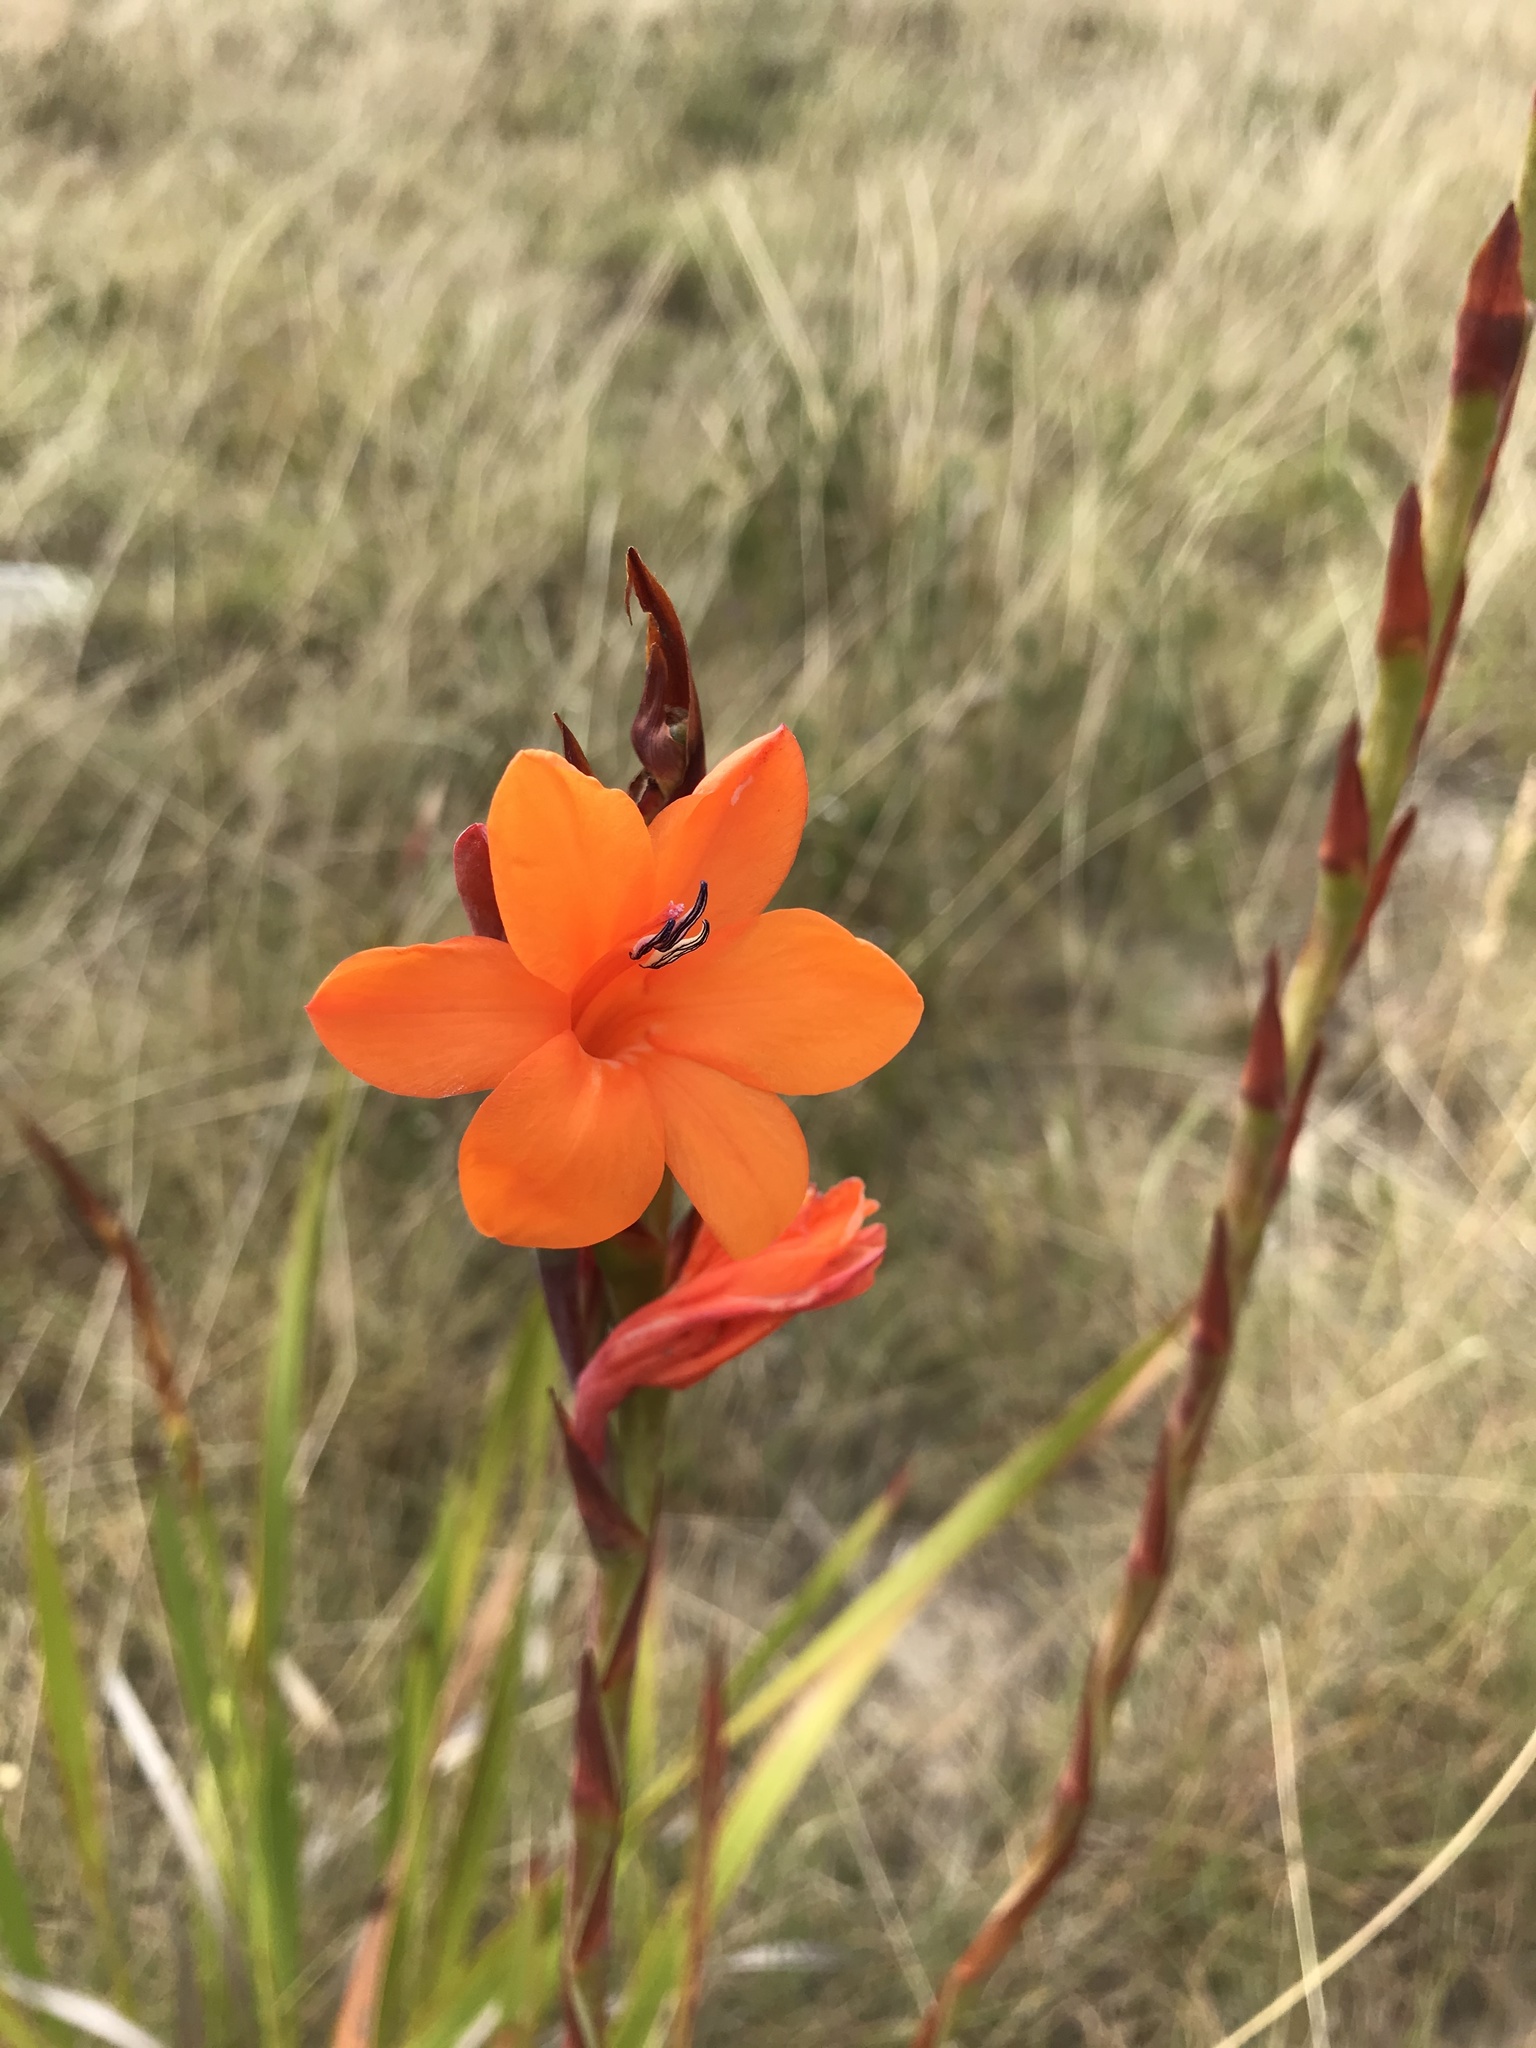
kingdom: Plantae
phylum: Tracheophyta
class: Liliopsida
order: Asparagales
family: Iridaceae
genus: Watsonia
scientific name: Watsonia pillansii
